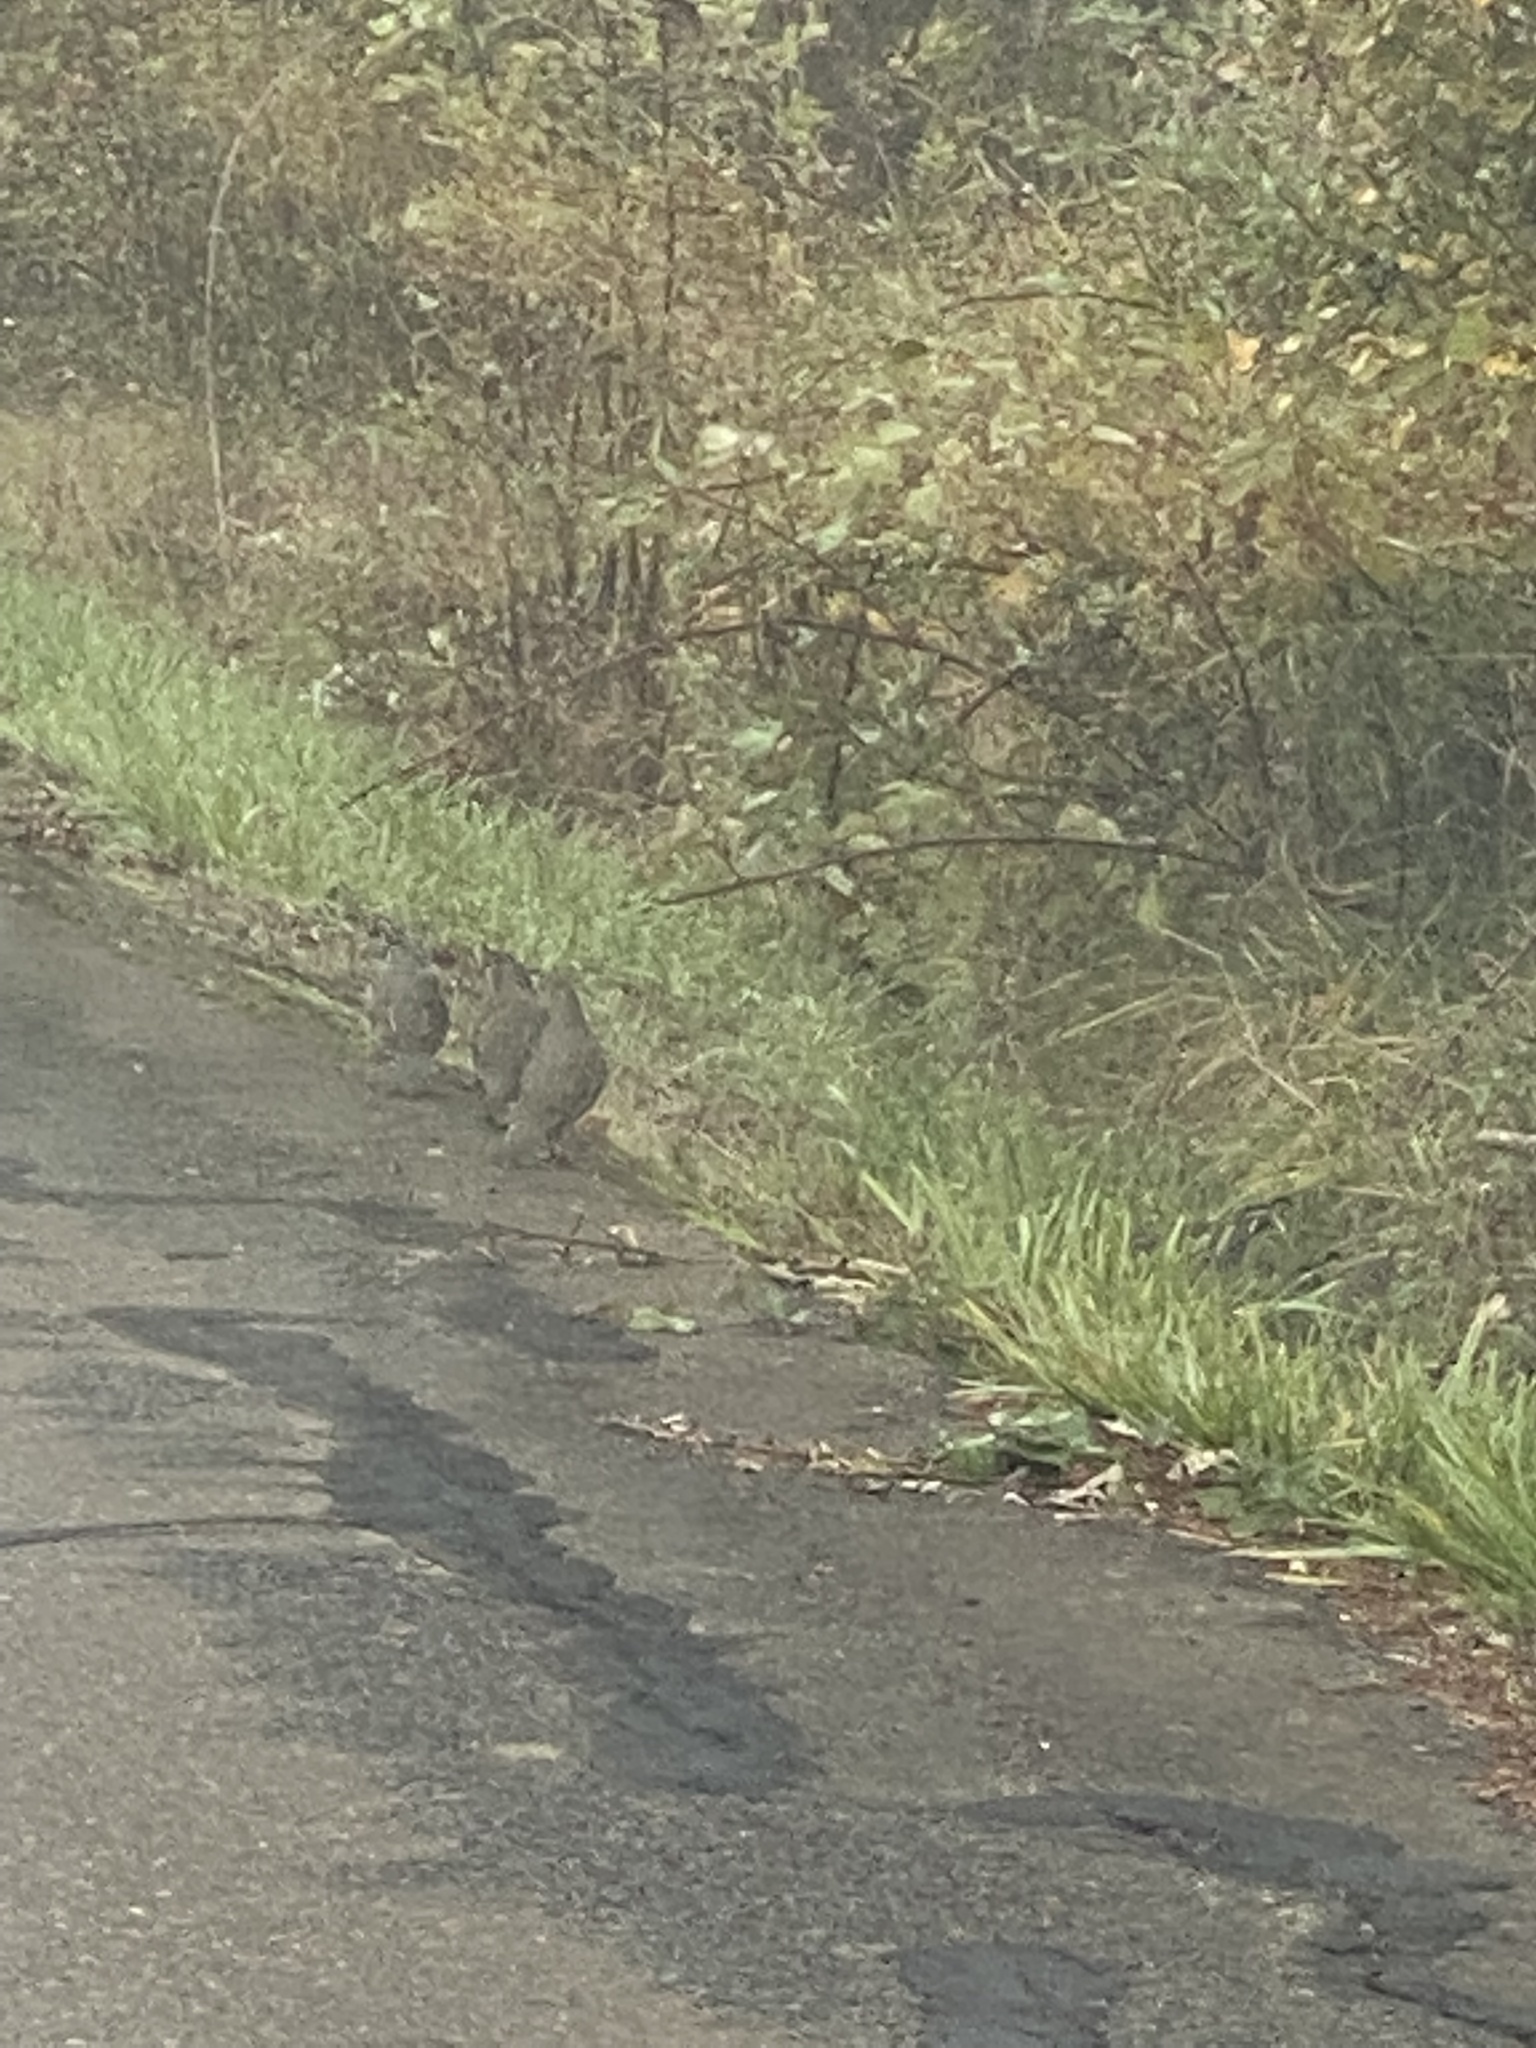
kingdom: Animalia
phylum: Chordata
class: Aves
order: Galliformes
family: Odontophoridae
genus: Callipepla
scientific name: Callipepla californica
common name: California quail
